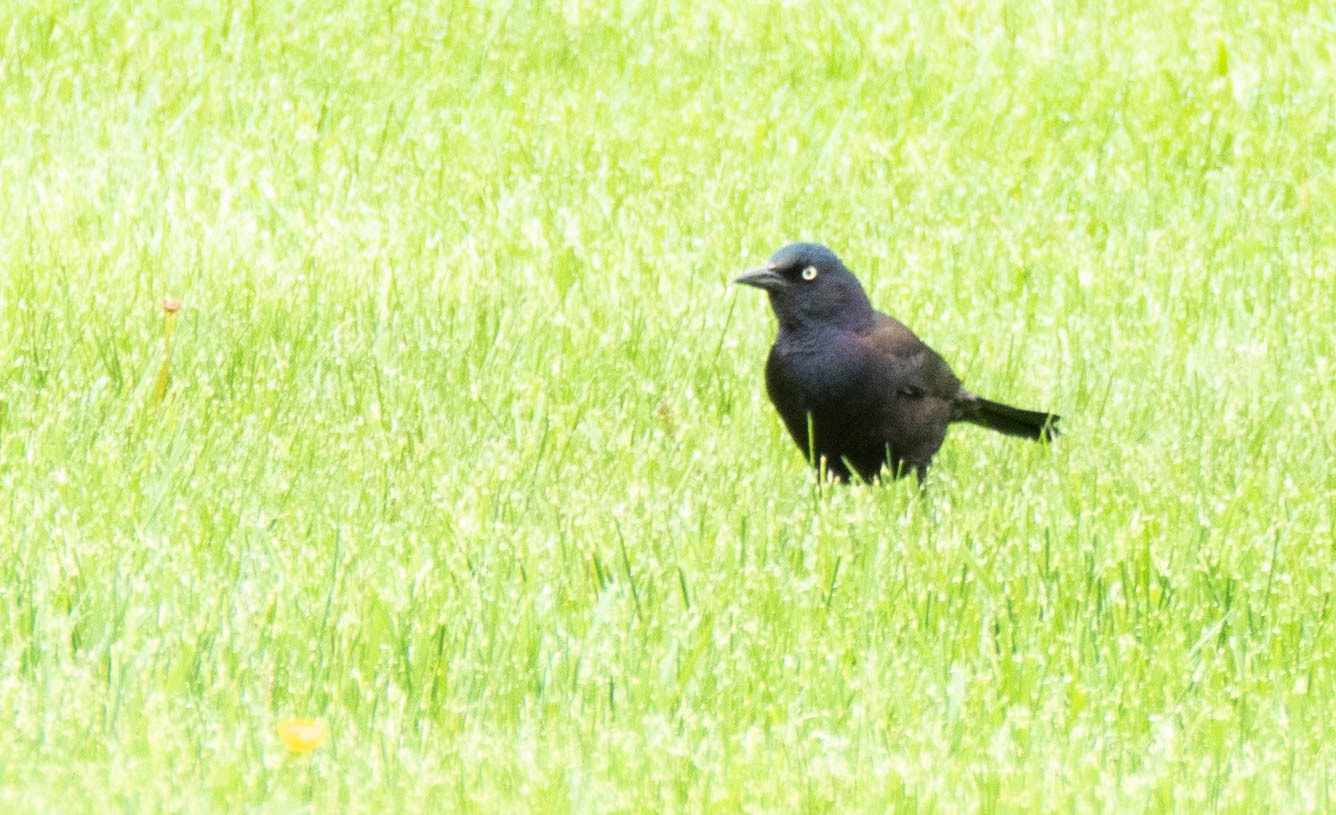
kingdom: Animalia
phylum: Chordata
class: Aves
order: Passeriformes
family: Icteridae
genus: Quiscalus
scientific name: Quiscalus quiscula
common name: Common grackle
